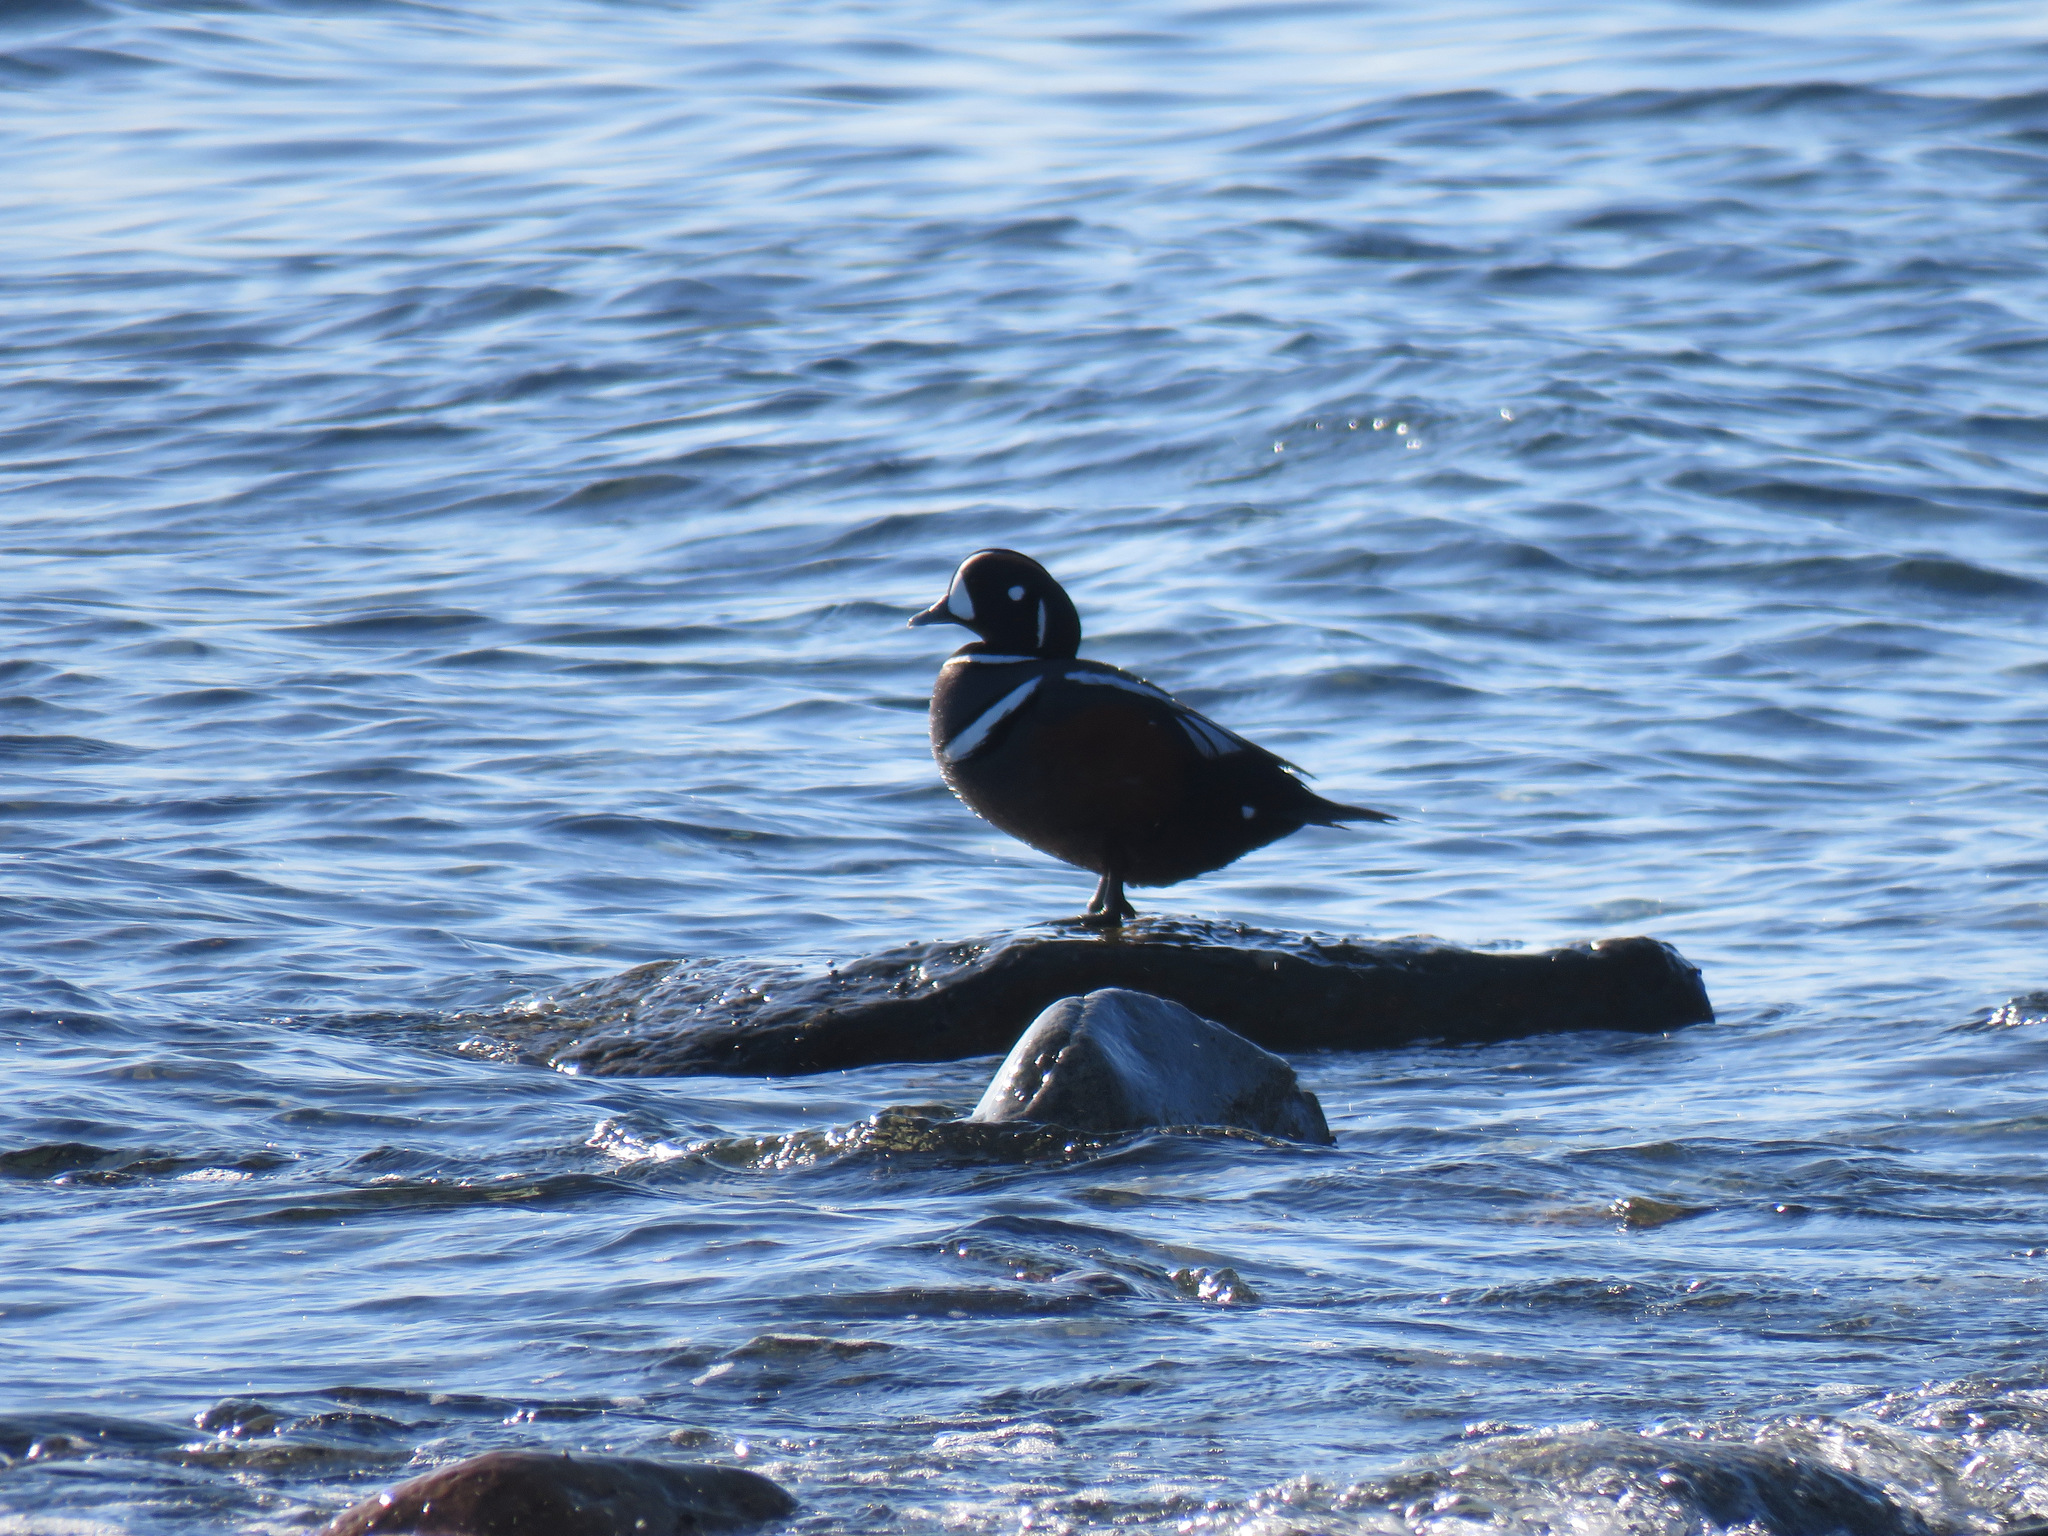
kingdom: Animalia
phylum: Chordata
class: Aves
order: Anseriformes
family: Anatidae
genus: Histrionicus
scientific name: Histrionicus histrionicus
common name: Harlequin duck
